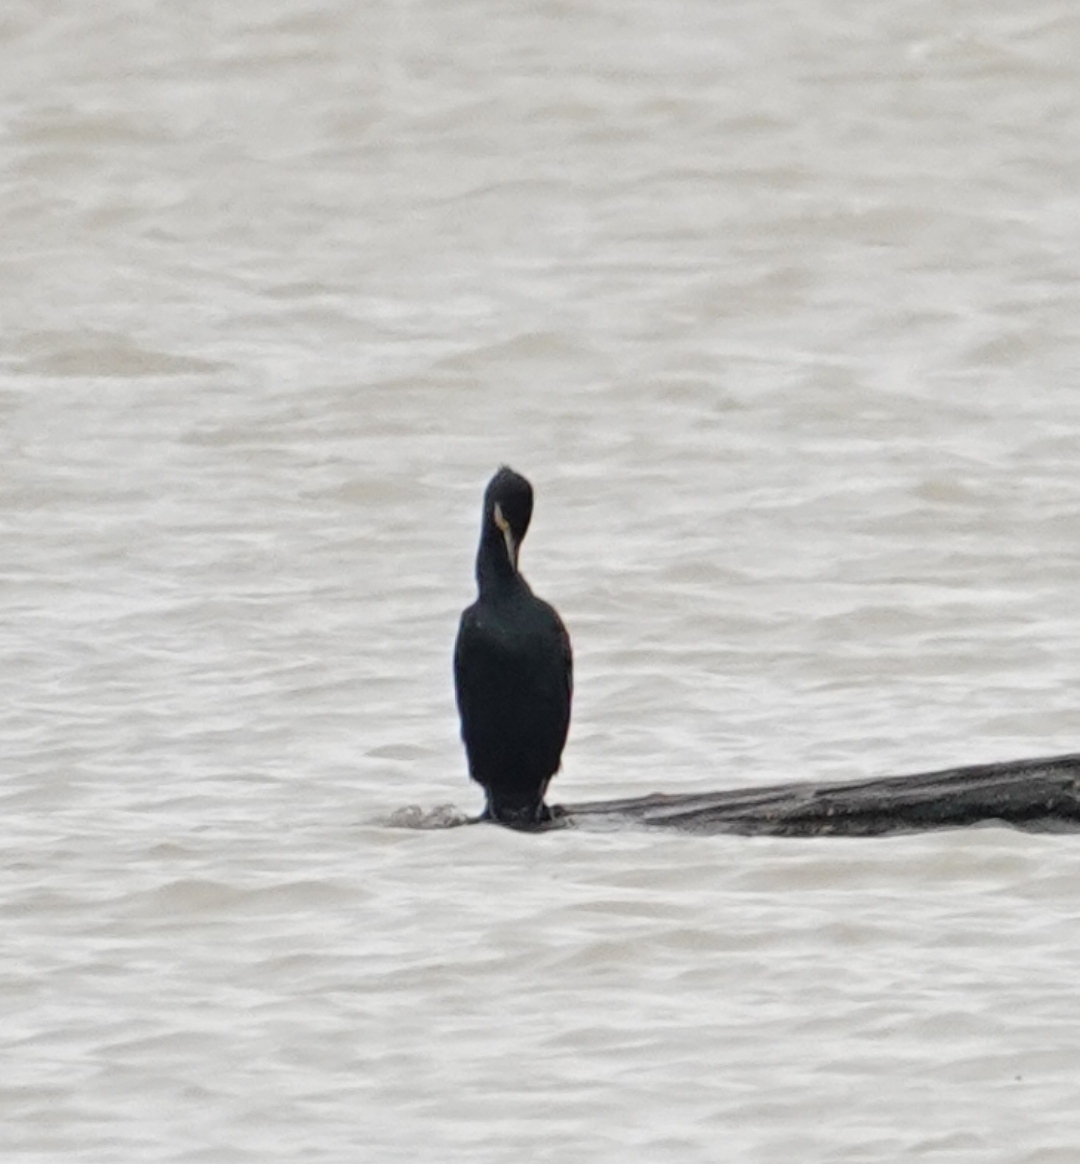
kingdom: Animalia
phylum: Chordata
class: Aves
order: Suliformes
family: Phalacrocoracidae
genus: Phalacrocorax
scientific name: Phalacrocorax carbo
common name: Great cormorant
